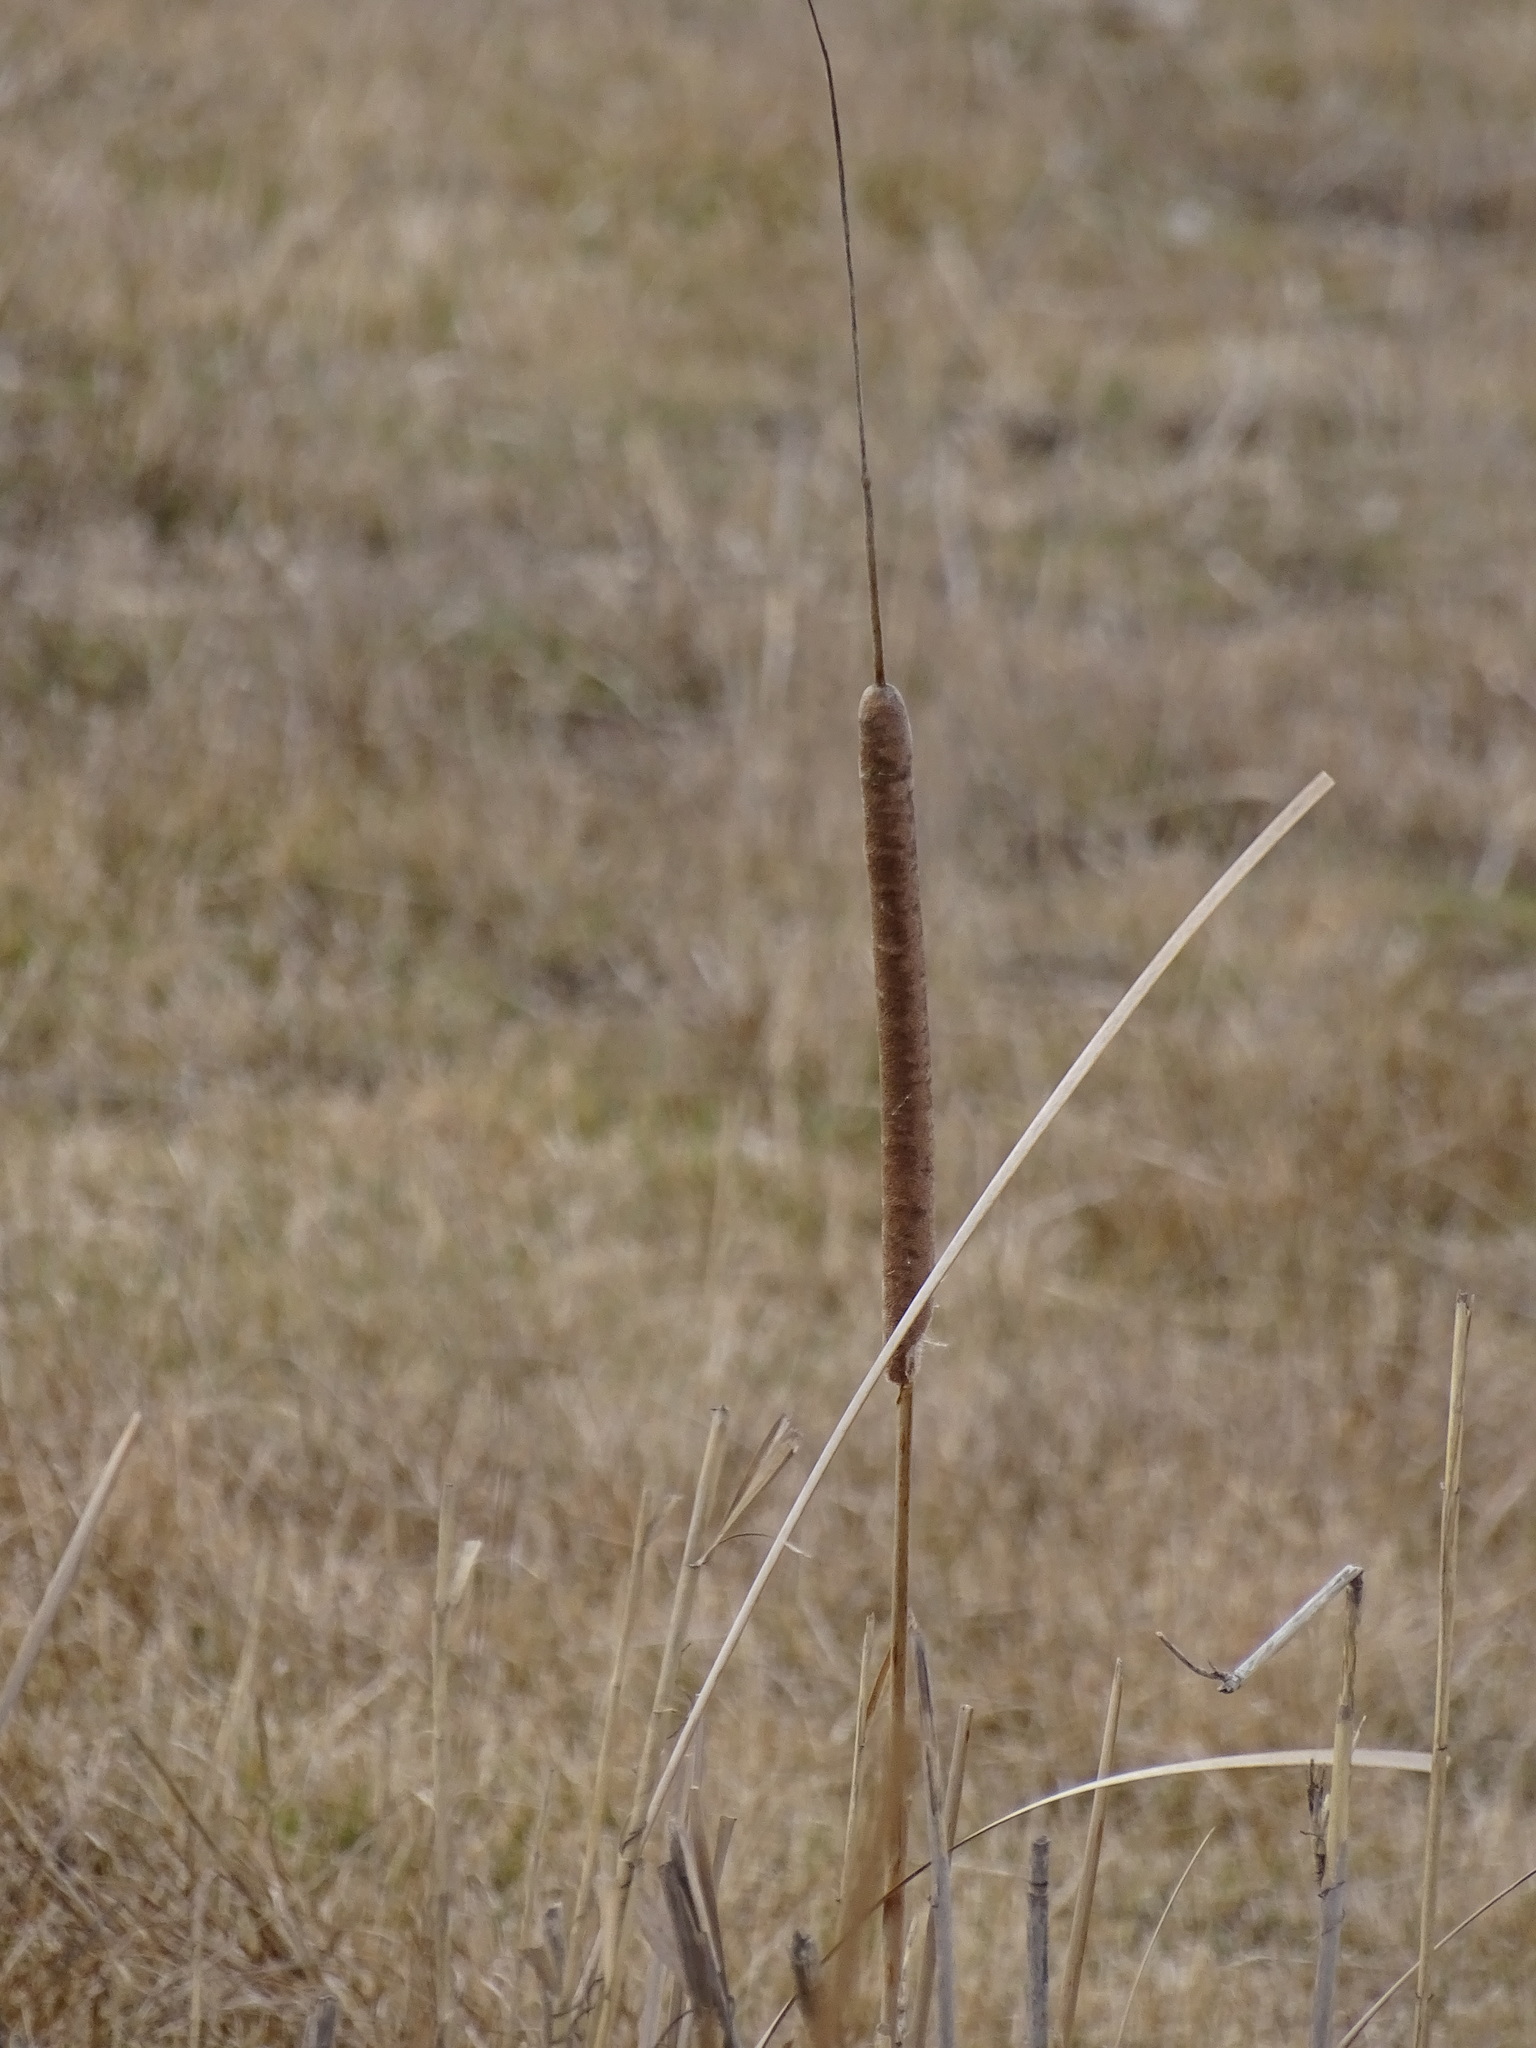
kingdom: Plantae
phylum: Tracheophyta
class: Liliopsida
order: Poales
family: Typhaceae
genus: Typha
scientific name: Typha angustifolia
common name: Lesser bulrush
